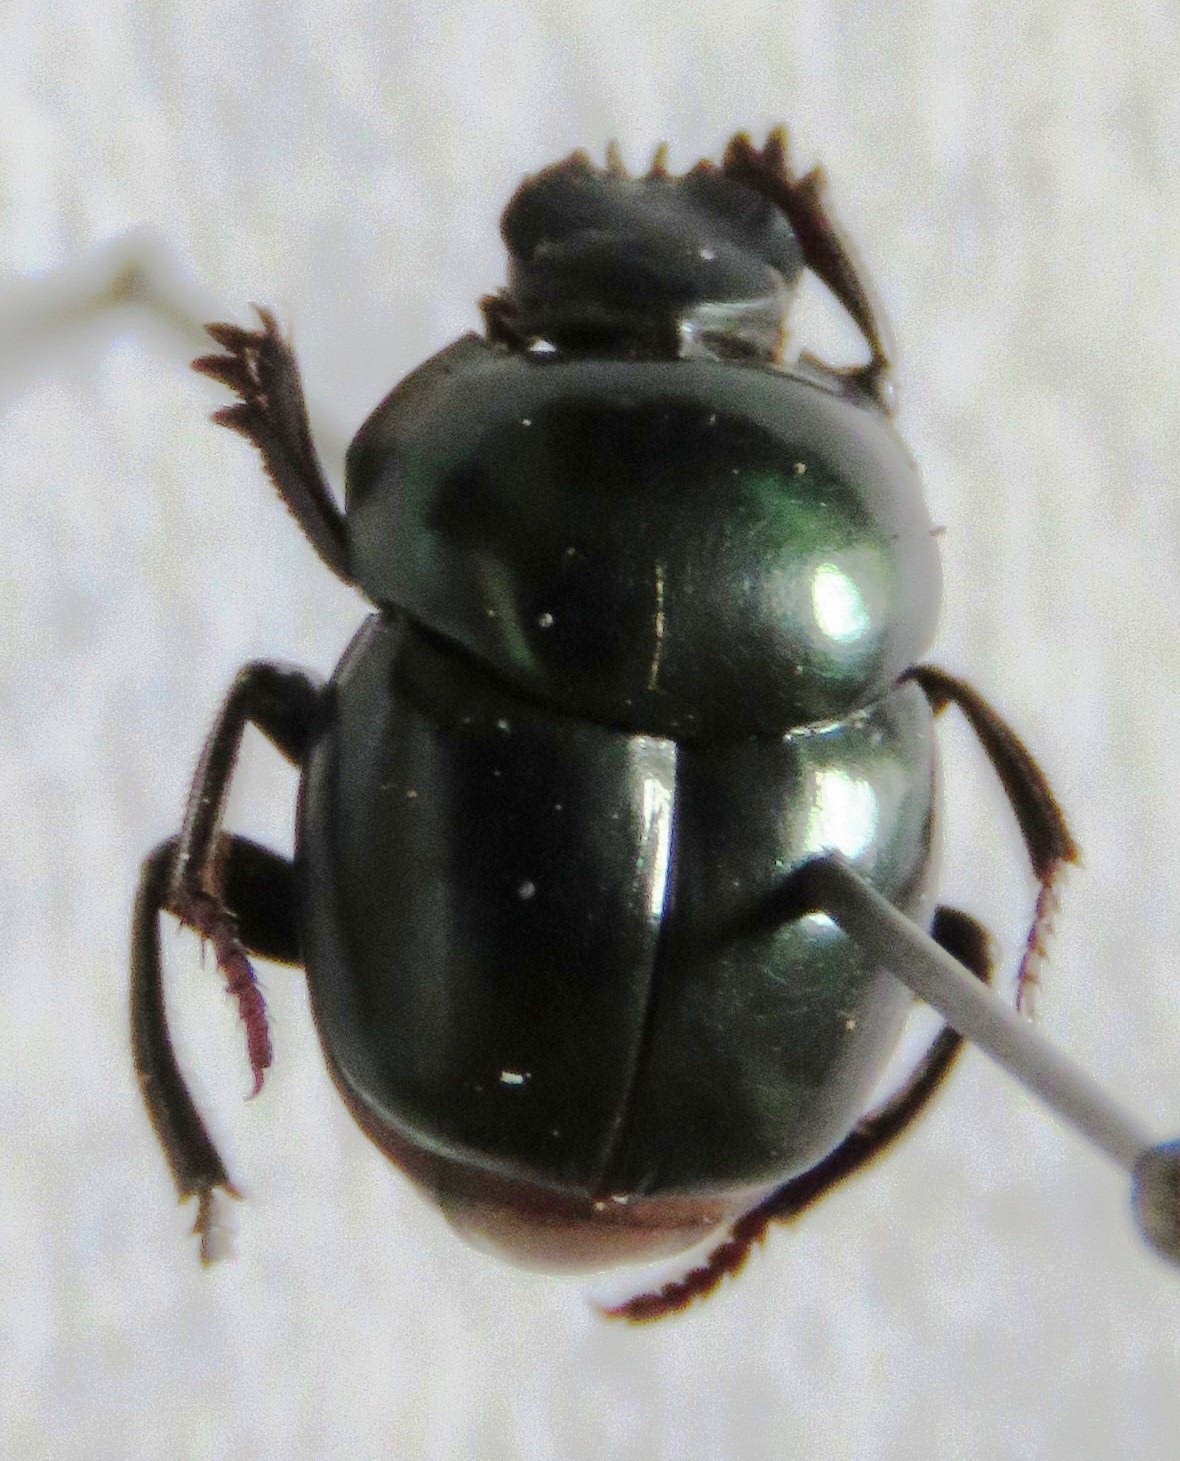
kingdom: Animalia
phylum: Arthropoda
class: Insecta
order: Coleoptera
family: Scarabaeidae
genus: Canthon
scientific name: Canthon cyanellus
